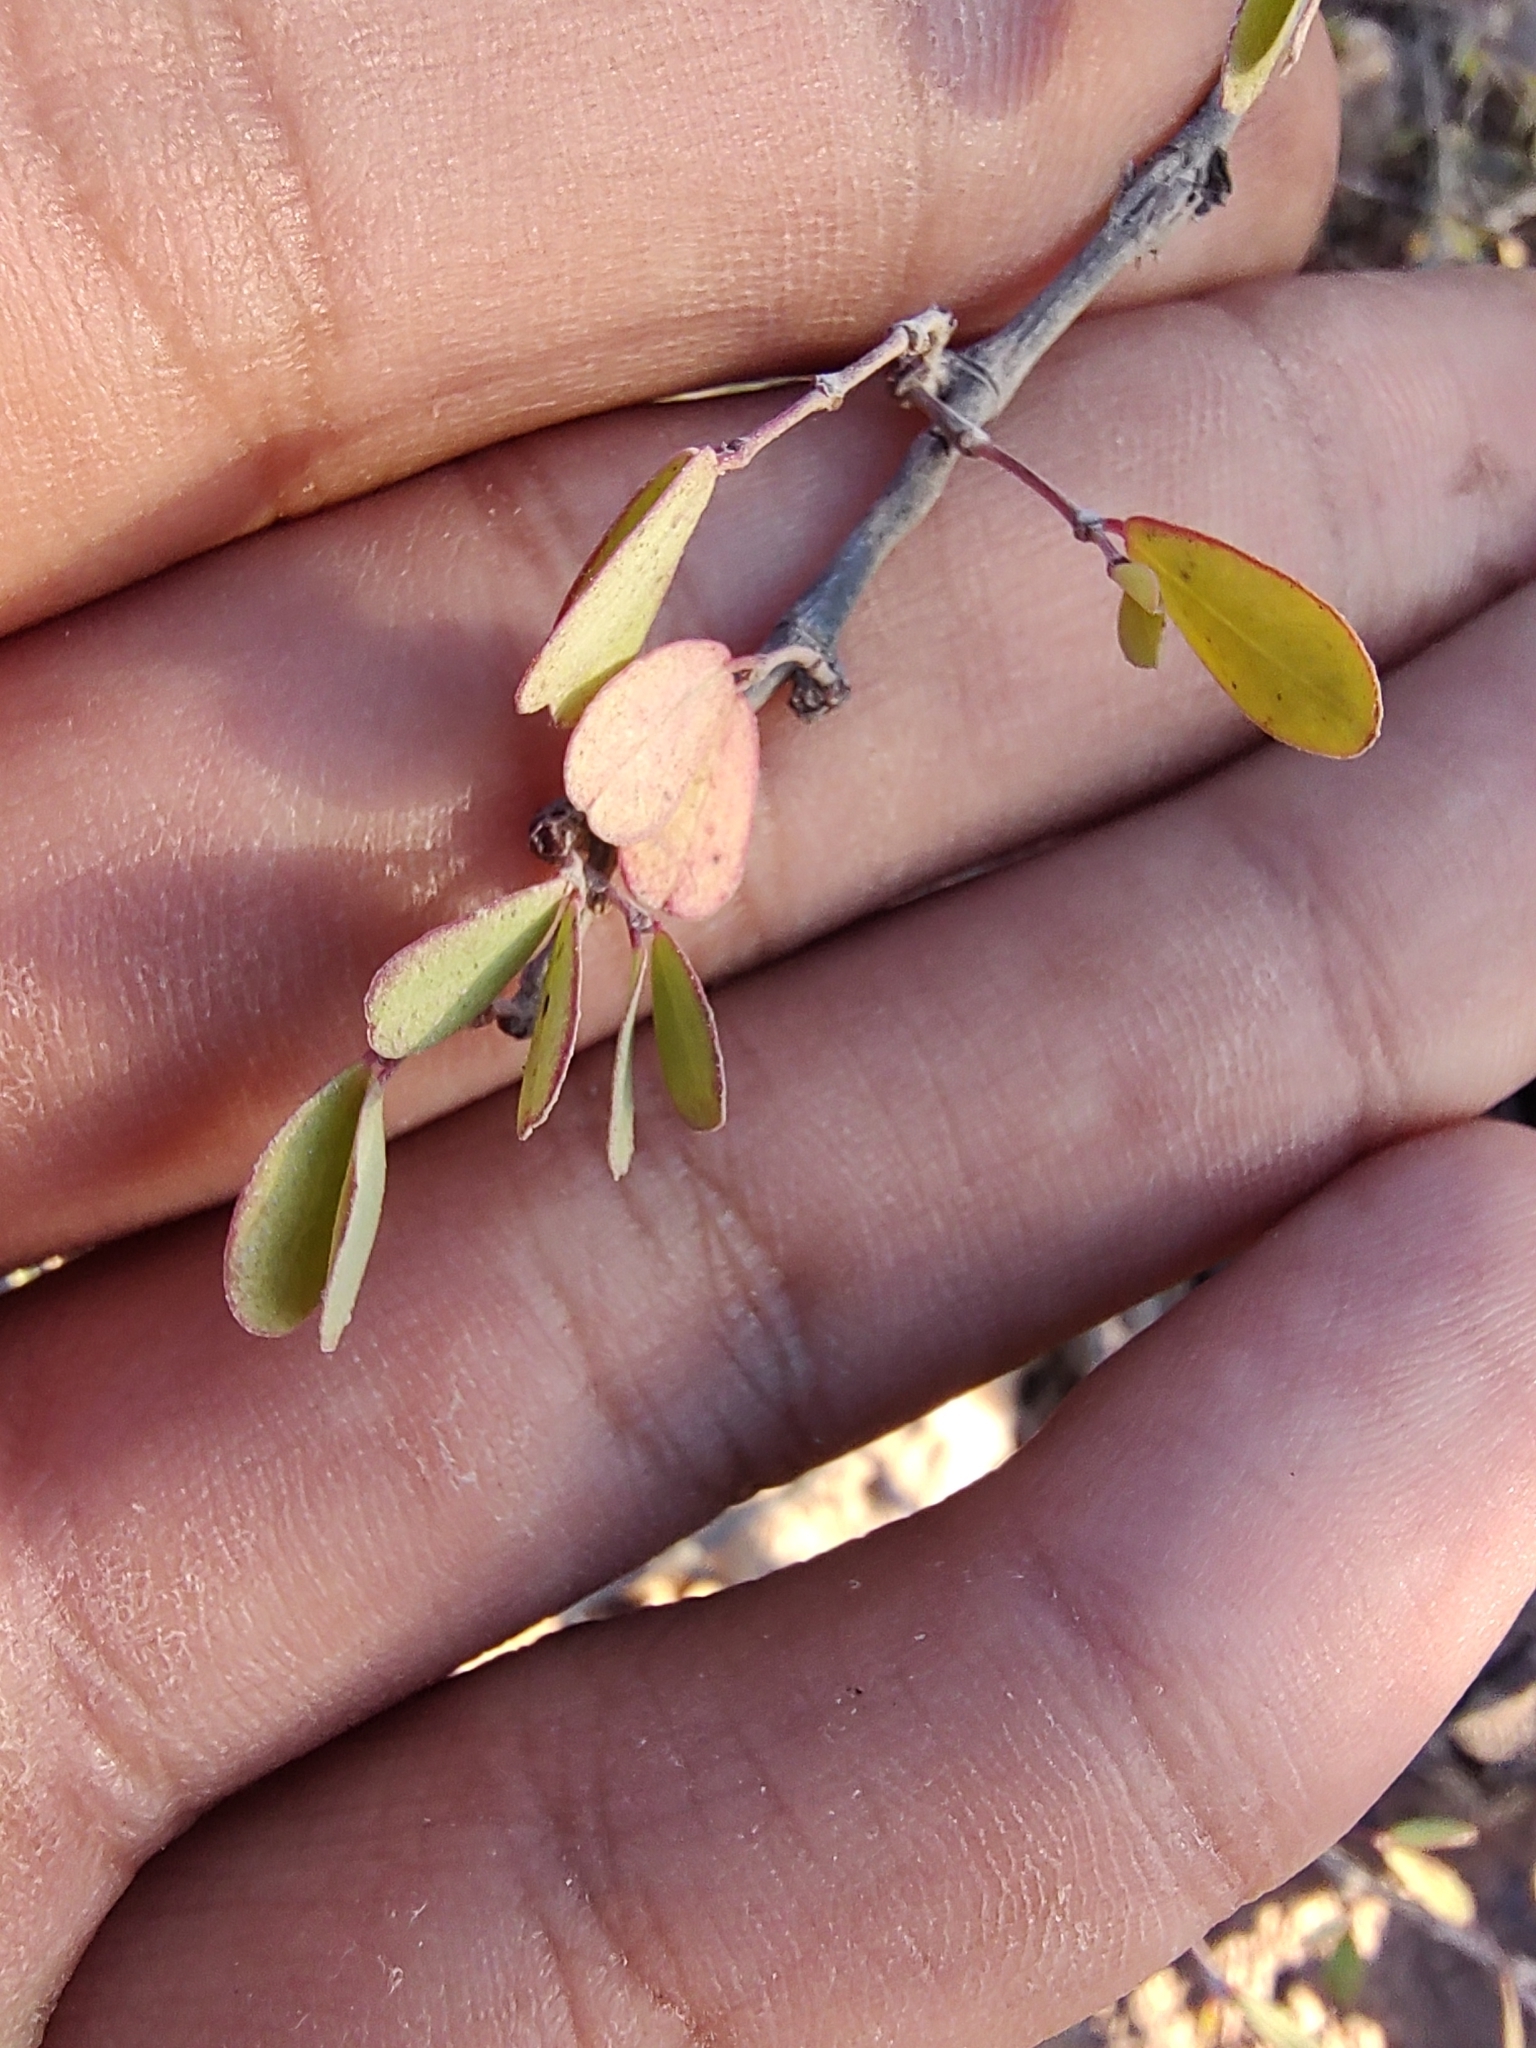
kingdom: Plantae
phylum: Tracheophyta
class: Magnoliopsida
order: Malpighiales
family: Euphorbiaceae
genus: Euphorbia
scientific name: Euphorbia magdalenae
